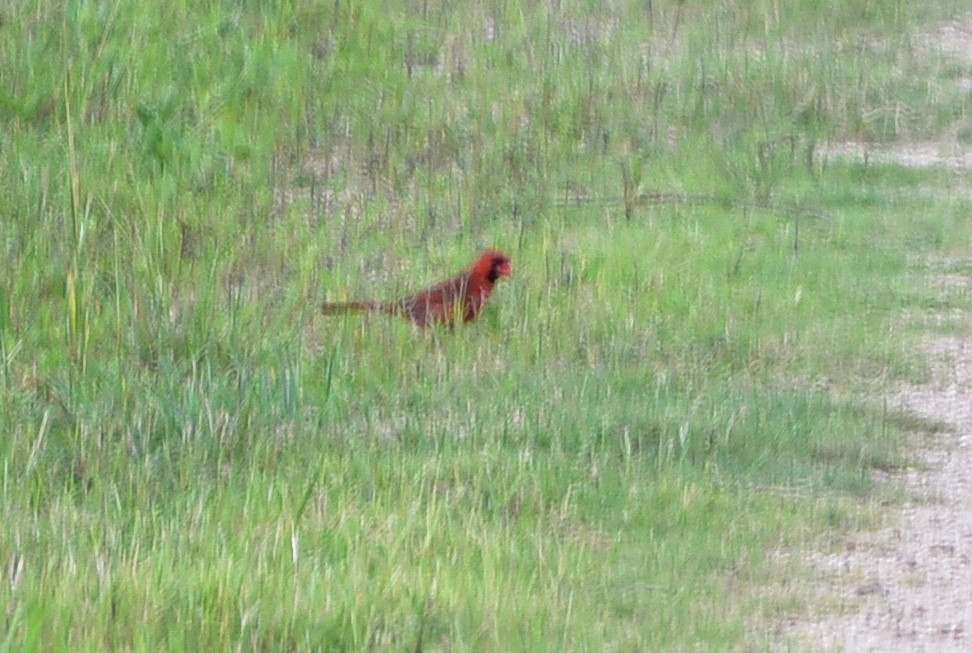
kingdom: Animalia
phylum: Chordata
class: Aves
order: Passeriformes
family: Cardinalidae
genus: Cardinalis
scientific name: Cardinalis cardinalis
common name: Northern cardinal
